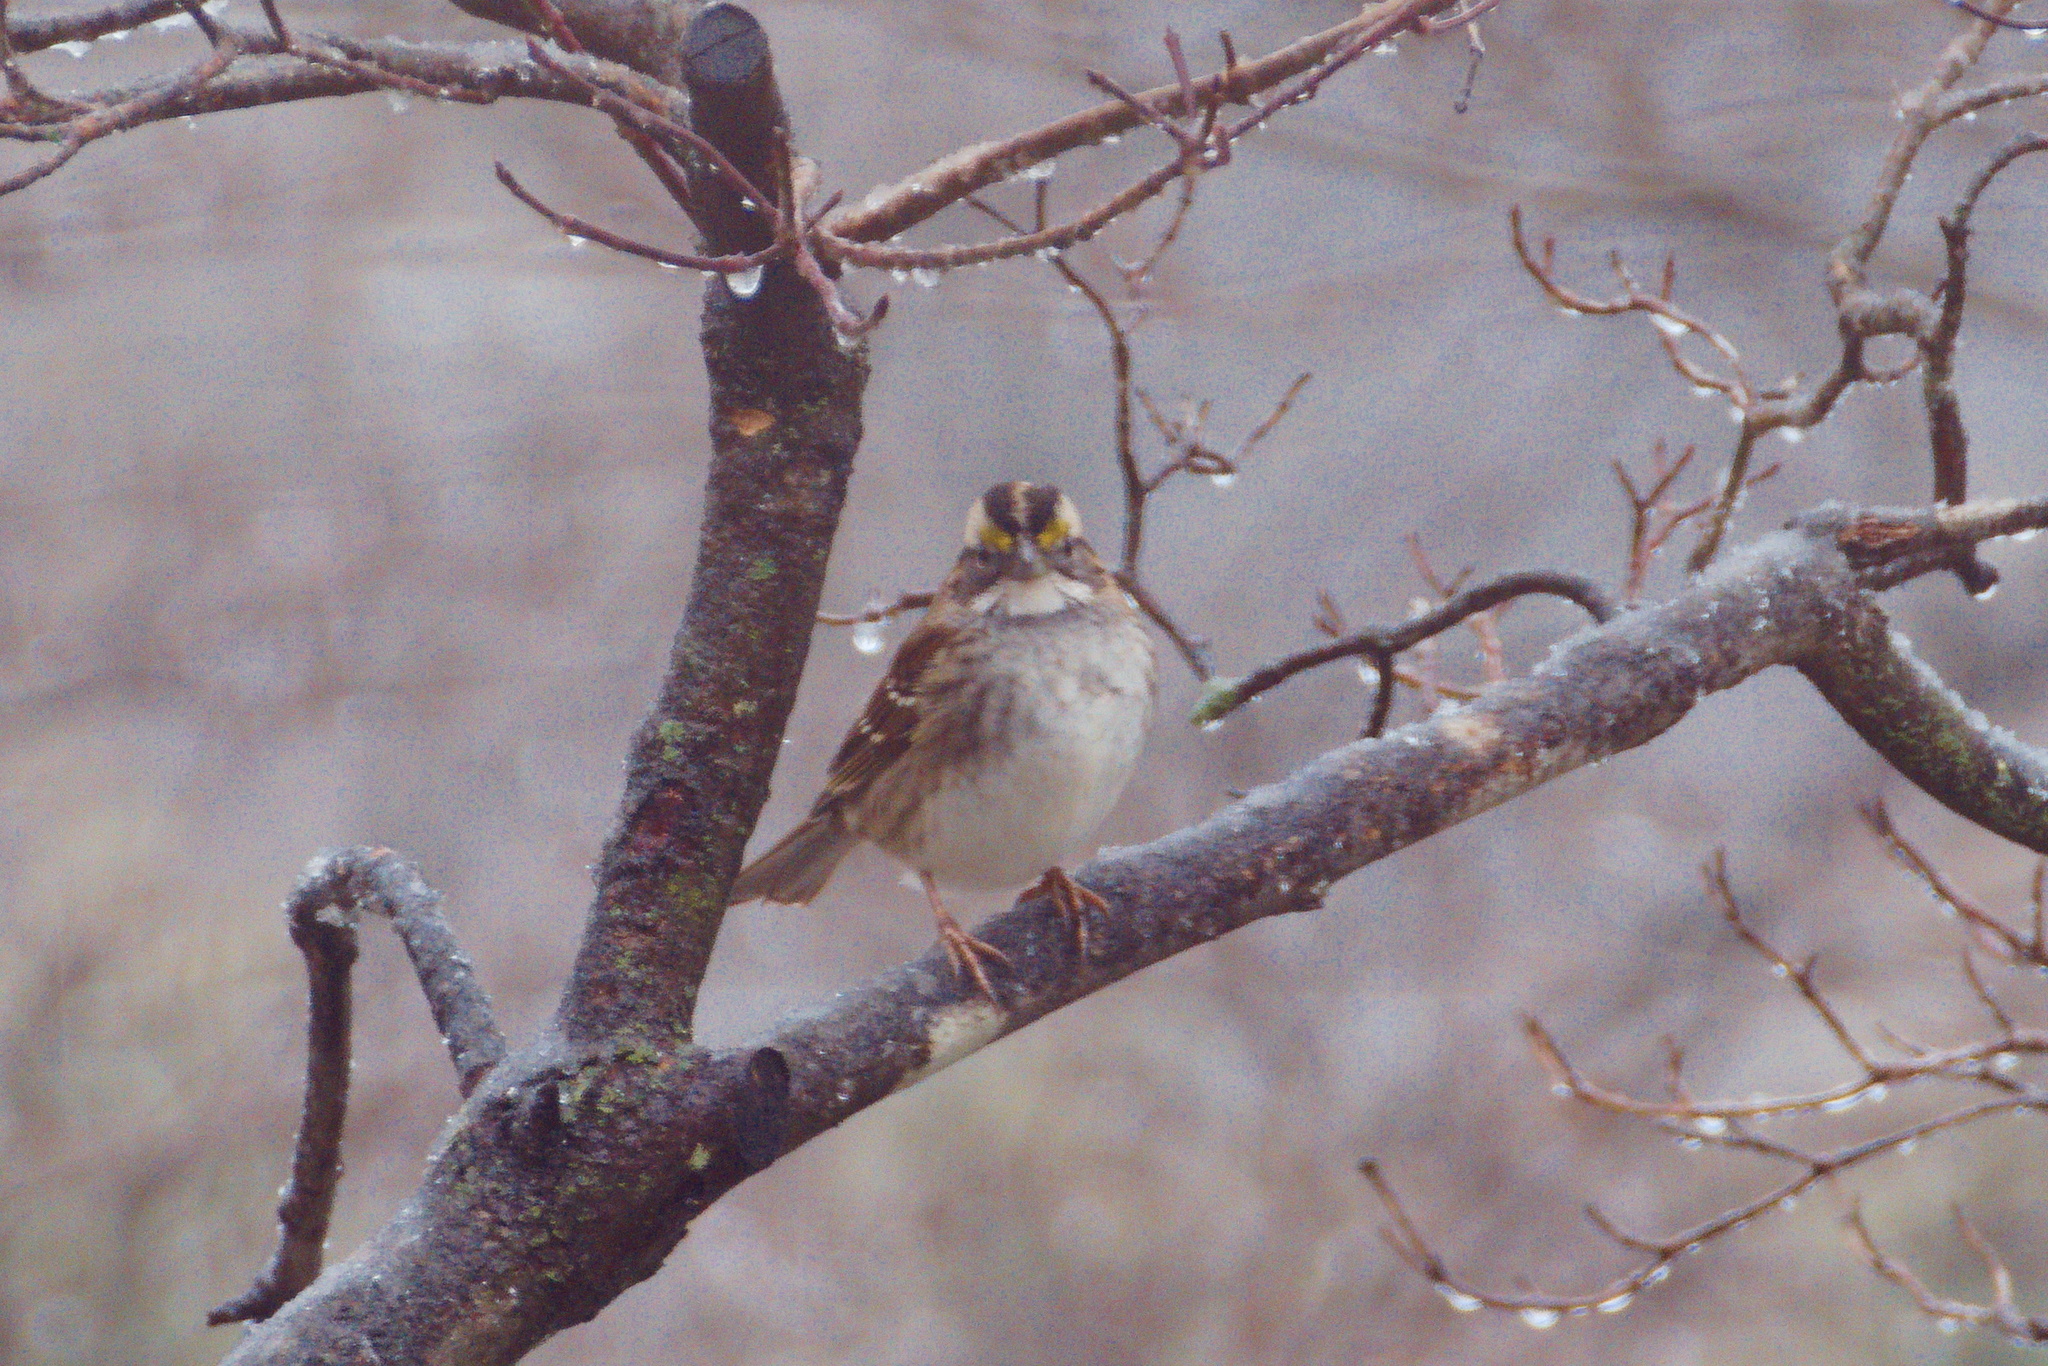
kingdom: Animalia
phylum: Chordata
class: Aves
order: Passeriformes
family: Passerellidae
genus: Zonotrichia
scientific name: Zonotrichia albicollis
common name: White-throated sparrow
